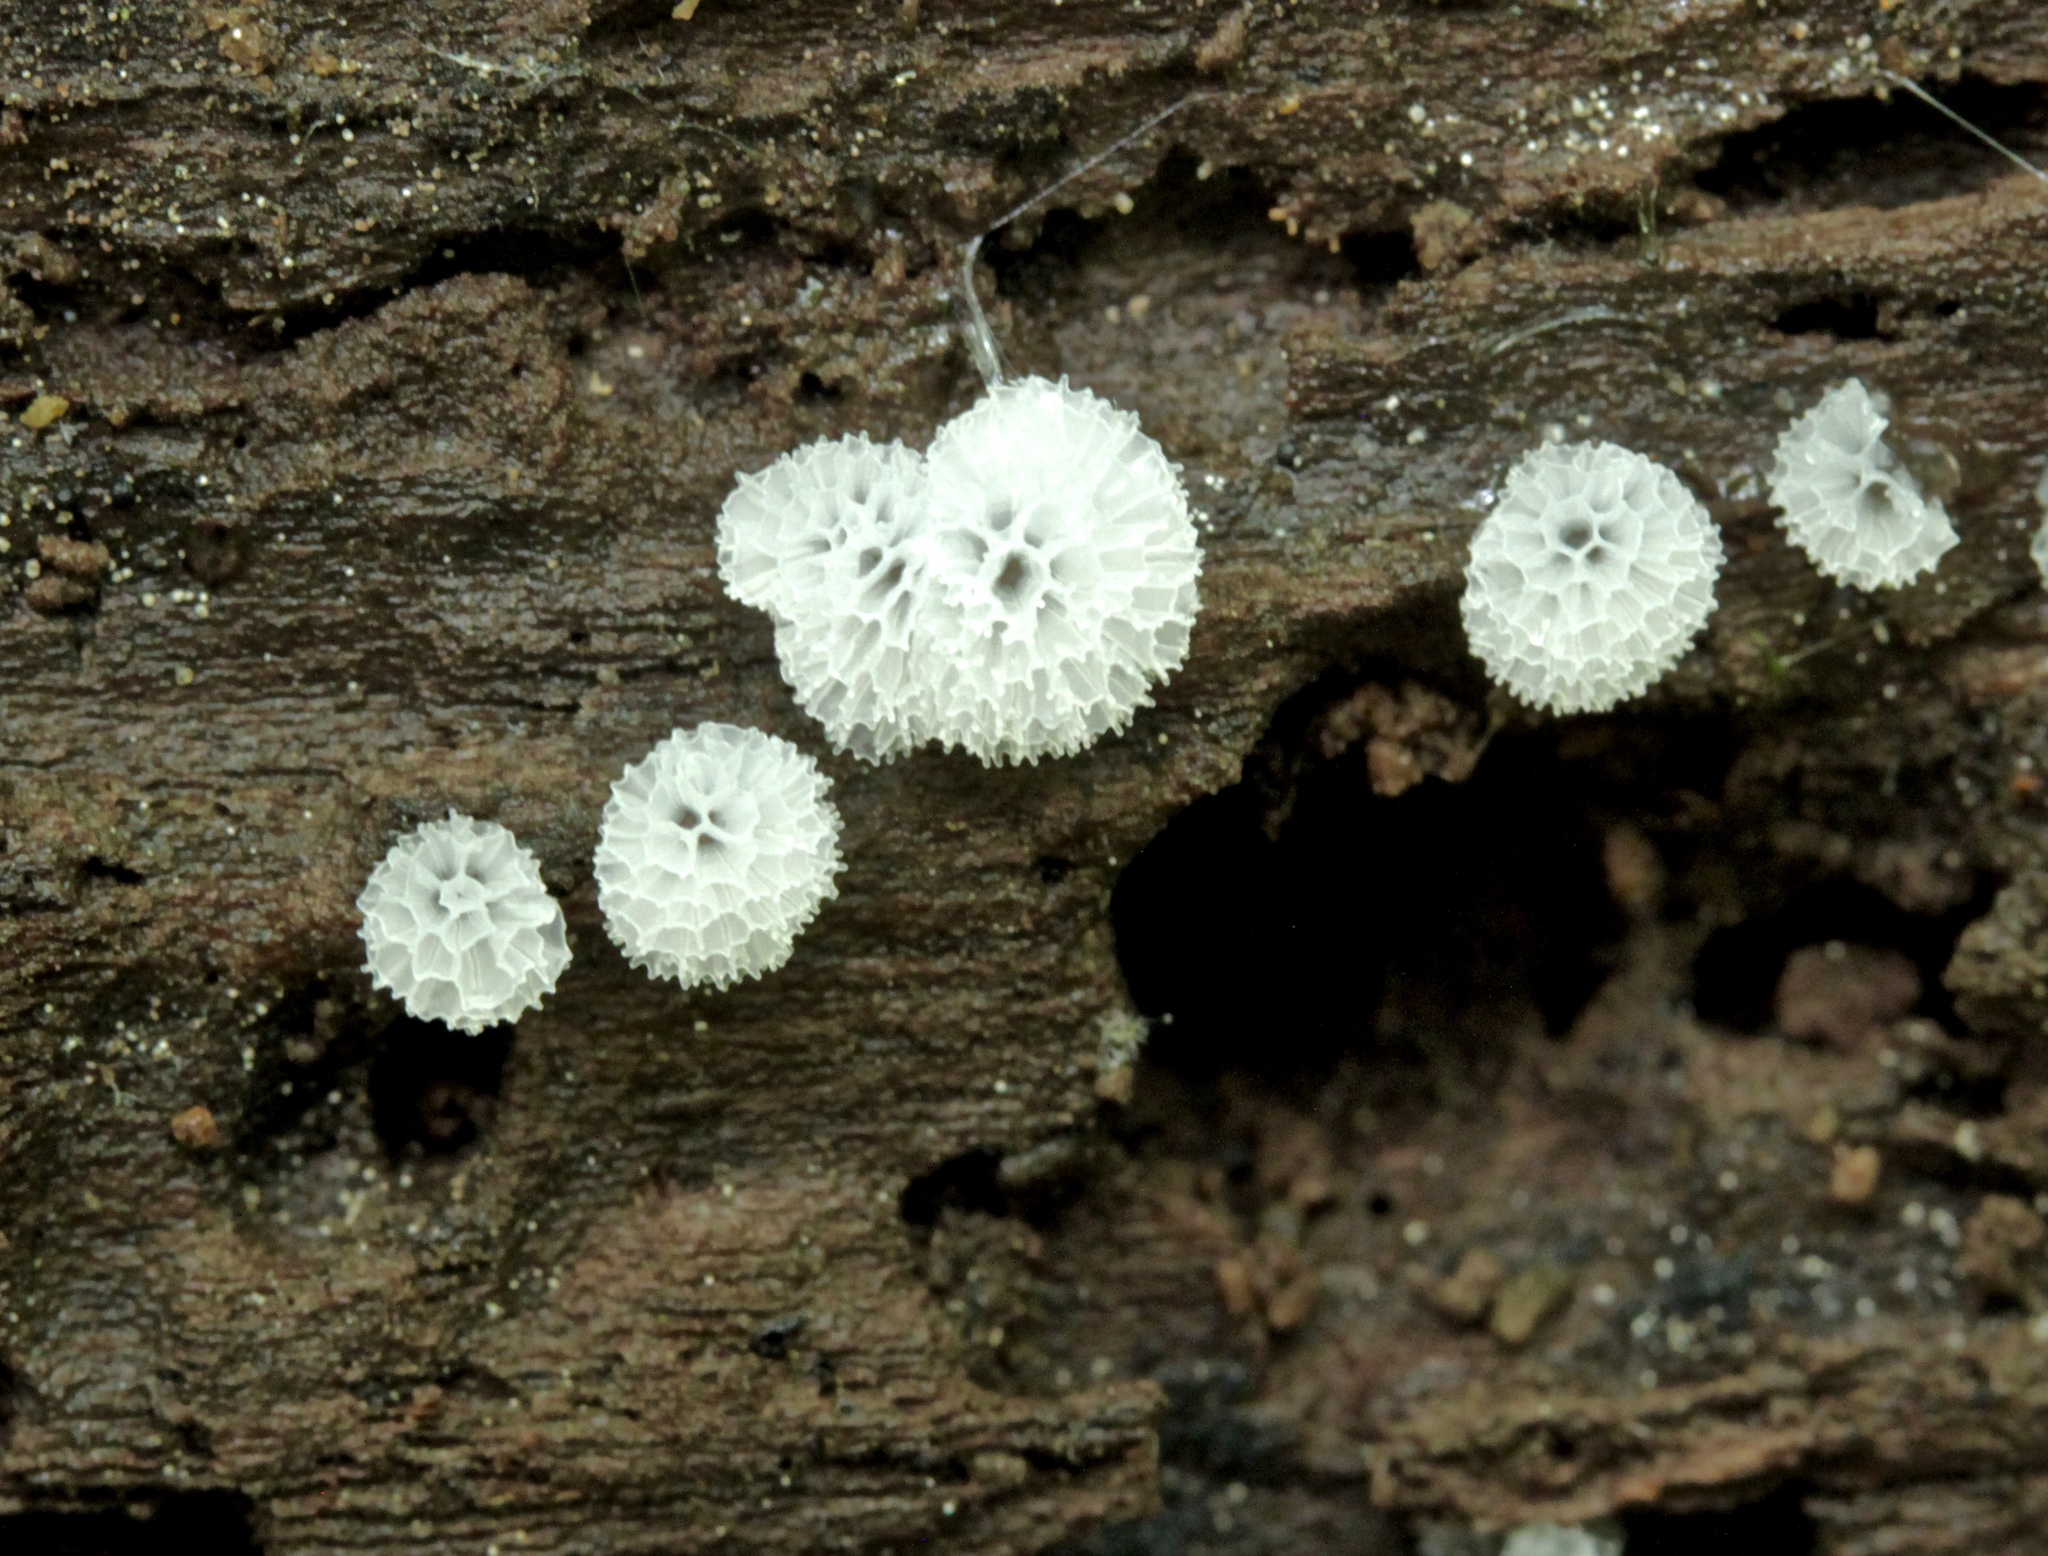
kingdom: Protozoa
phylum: Mycetozoa
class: Protosteliomycetes
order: Ceratiomyxales
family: Ceratiomyxaceae
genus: Ceratiomyxa
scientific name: Ceratiomyxa fruticulosa
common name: Honeycomb coral slime mold
